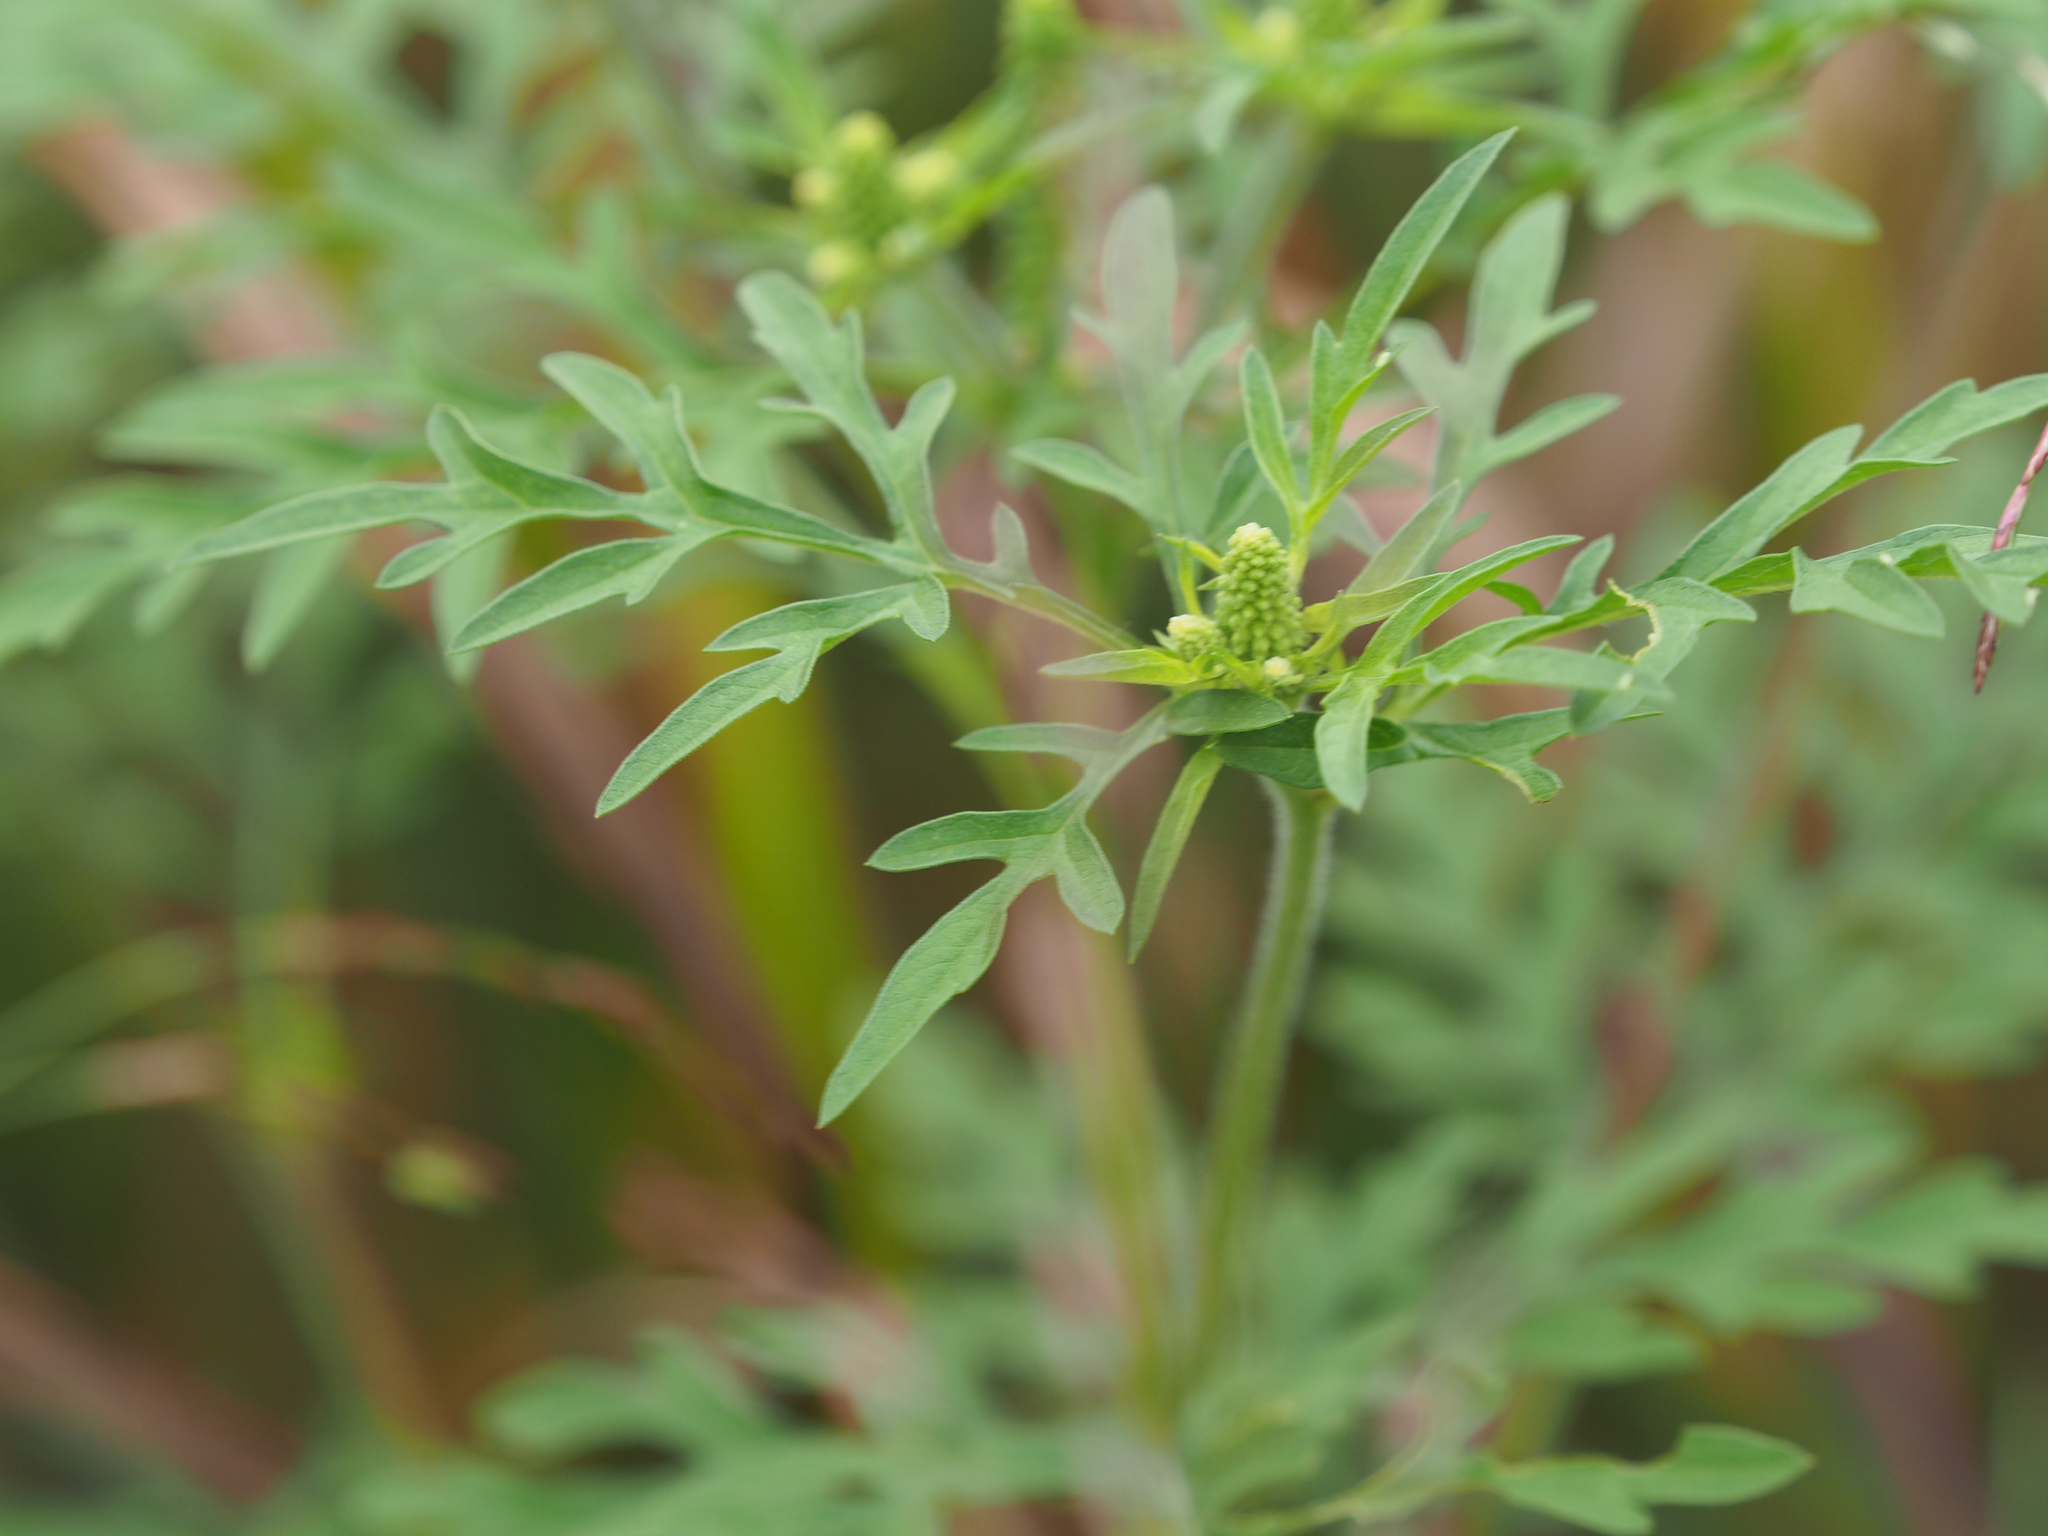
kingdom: Plantae
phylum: Tracheophyta
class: Magnoliopsida
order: Asterales
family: Asteraceae
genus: Ambrosia
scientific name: Ambrosia artemisiifolia
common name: Annual ragweed
